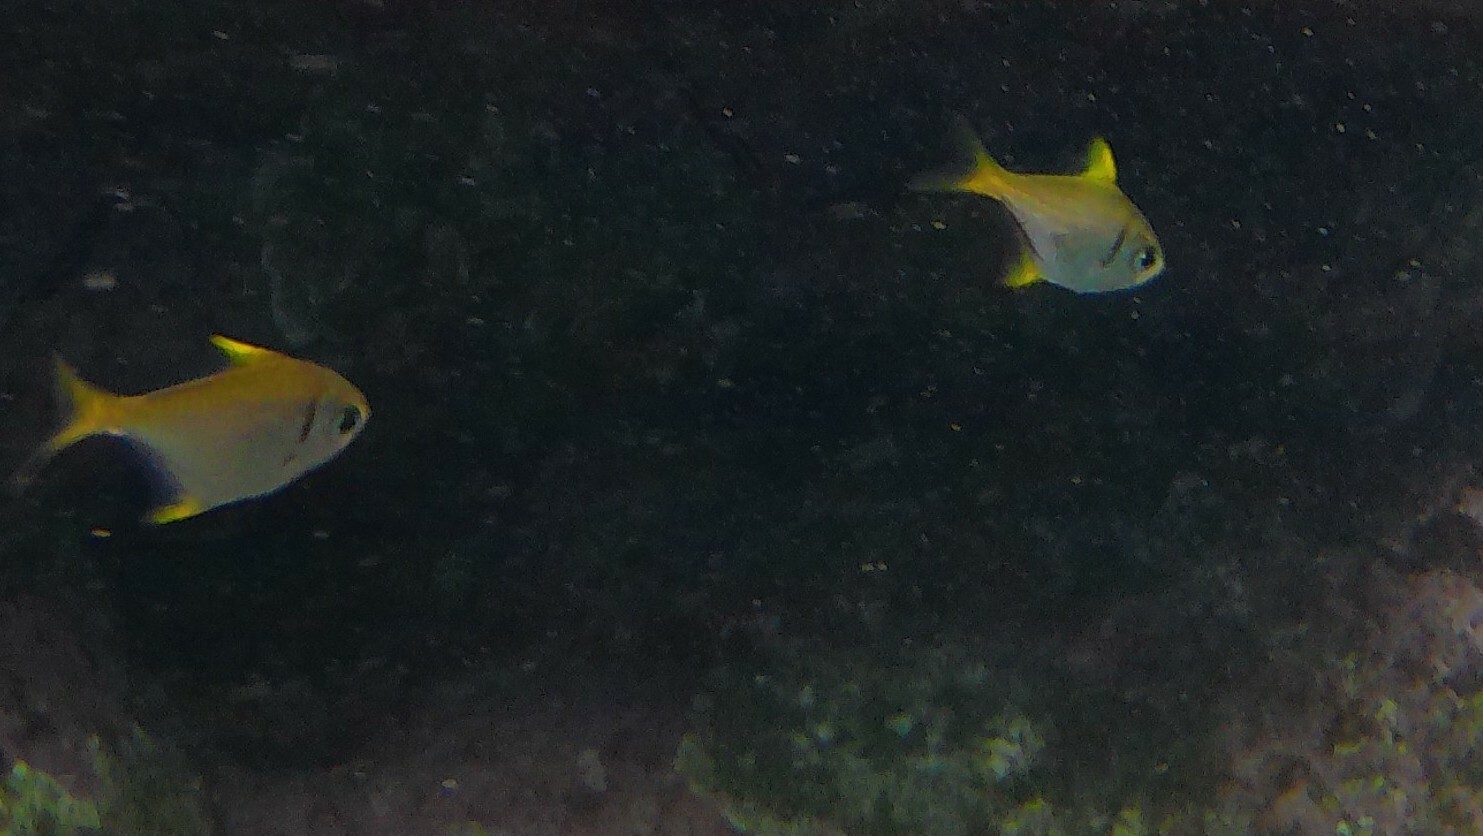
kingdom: Animalia
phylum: Chordata
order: Perciformes
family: Monodactylidae
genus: Schuettea
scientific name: Schuettea scalaripinnis
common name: Eastern pomfred
